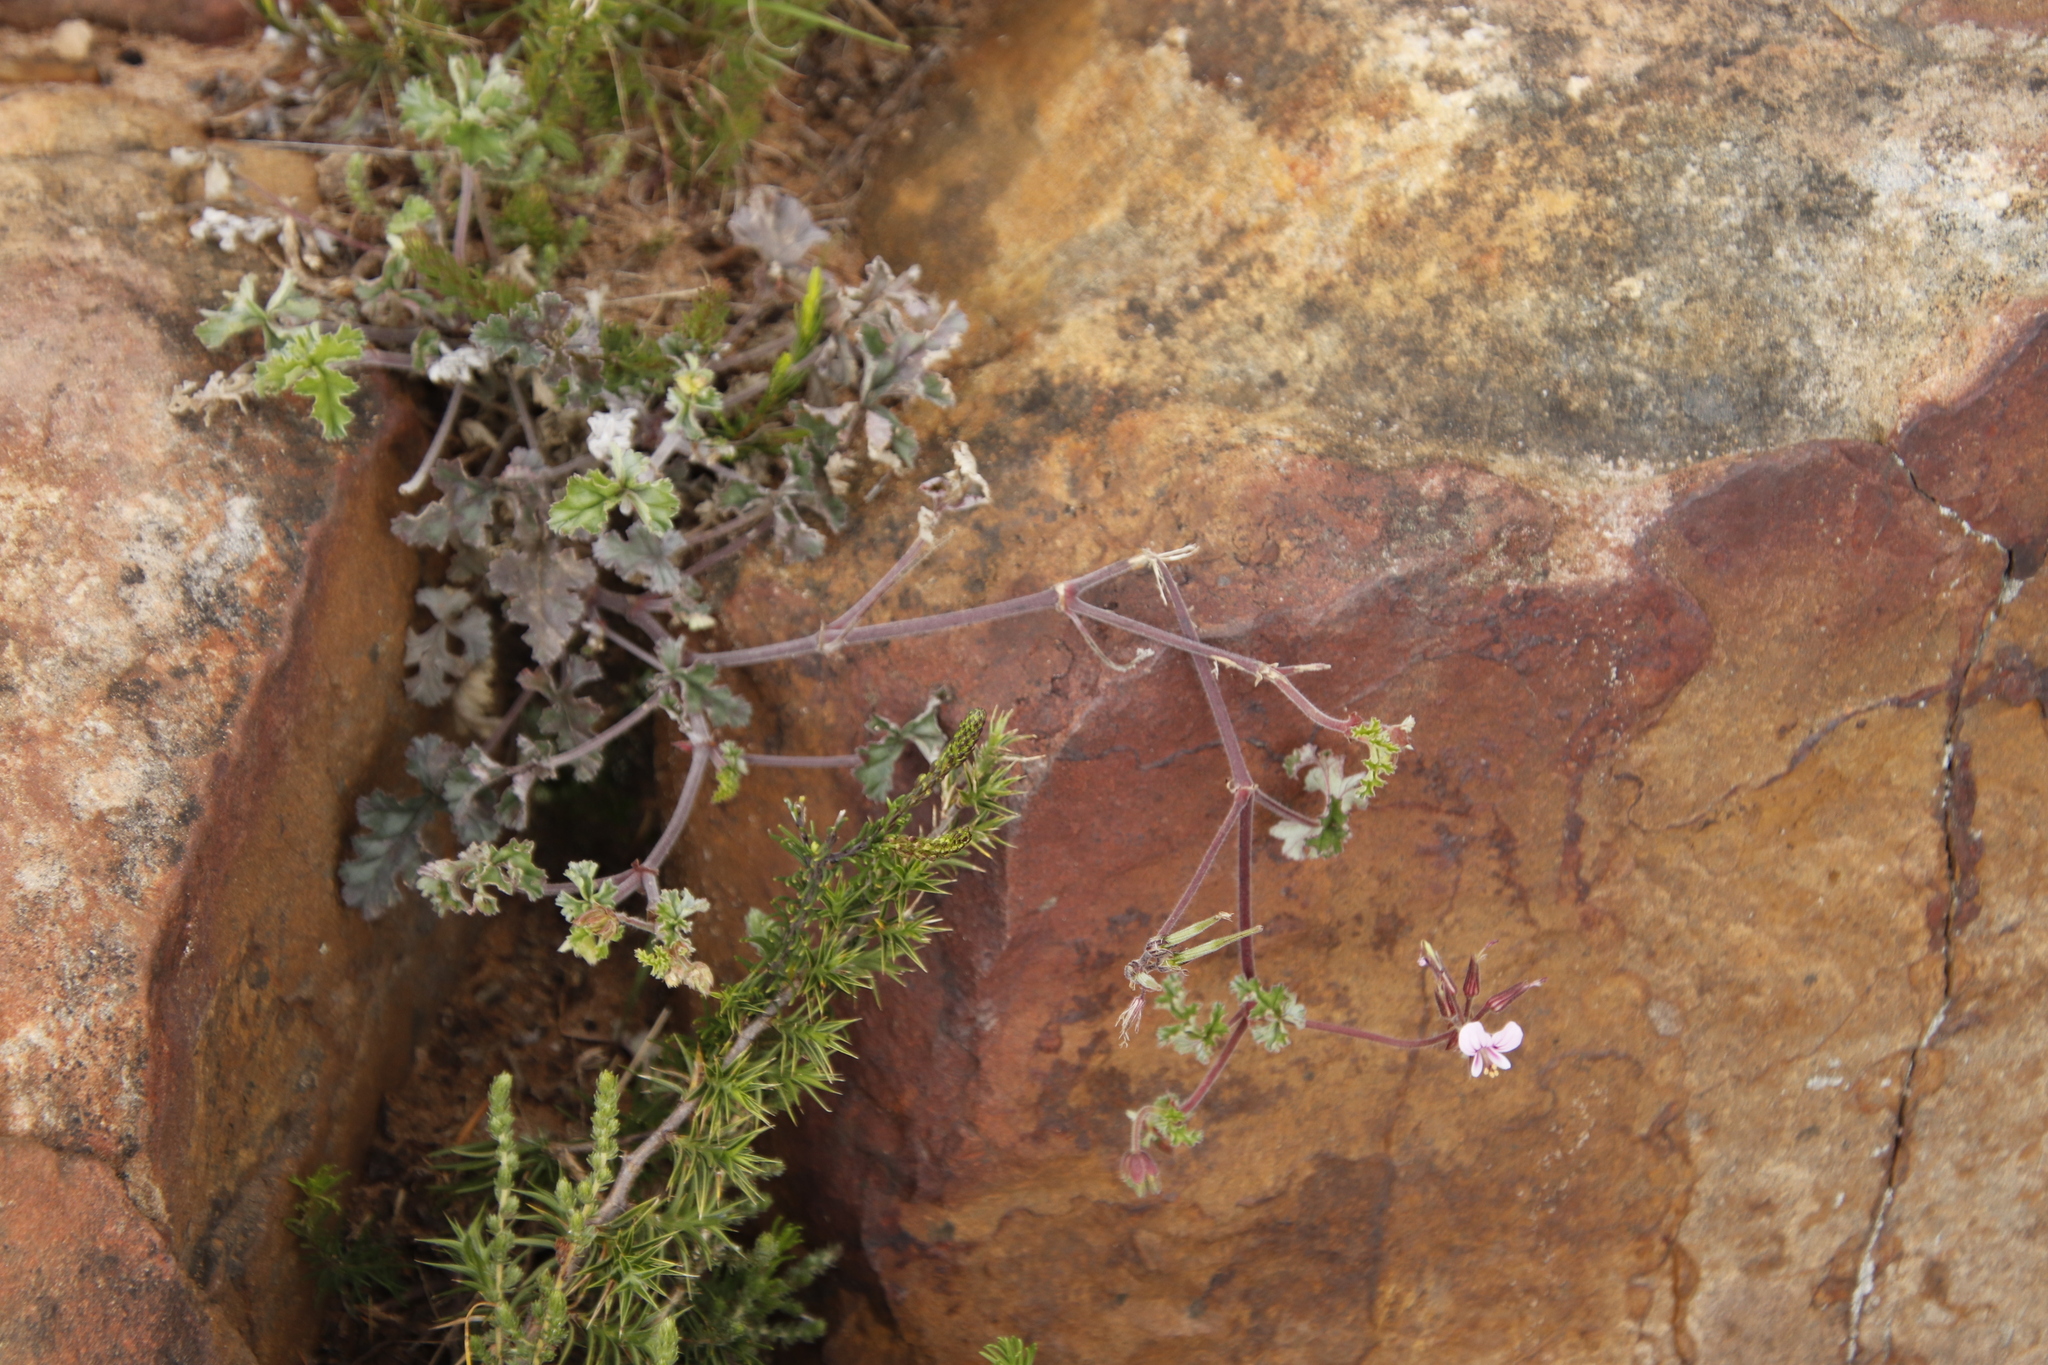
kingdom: Plantae
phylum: Tracheophyta
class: Magnoliopsida
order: Geraniales
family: Geraniaceae
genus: Pelargonium
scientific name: Pelargonium candicans
